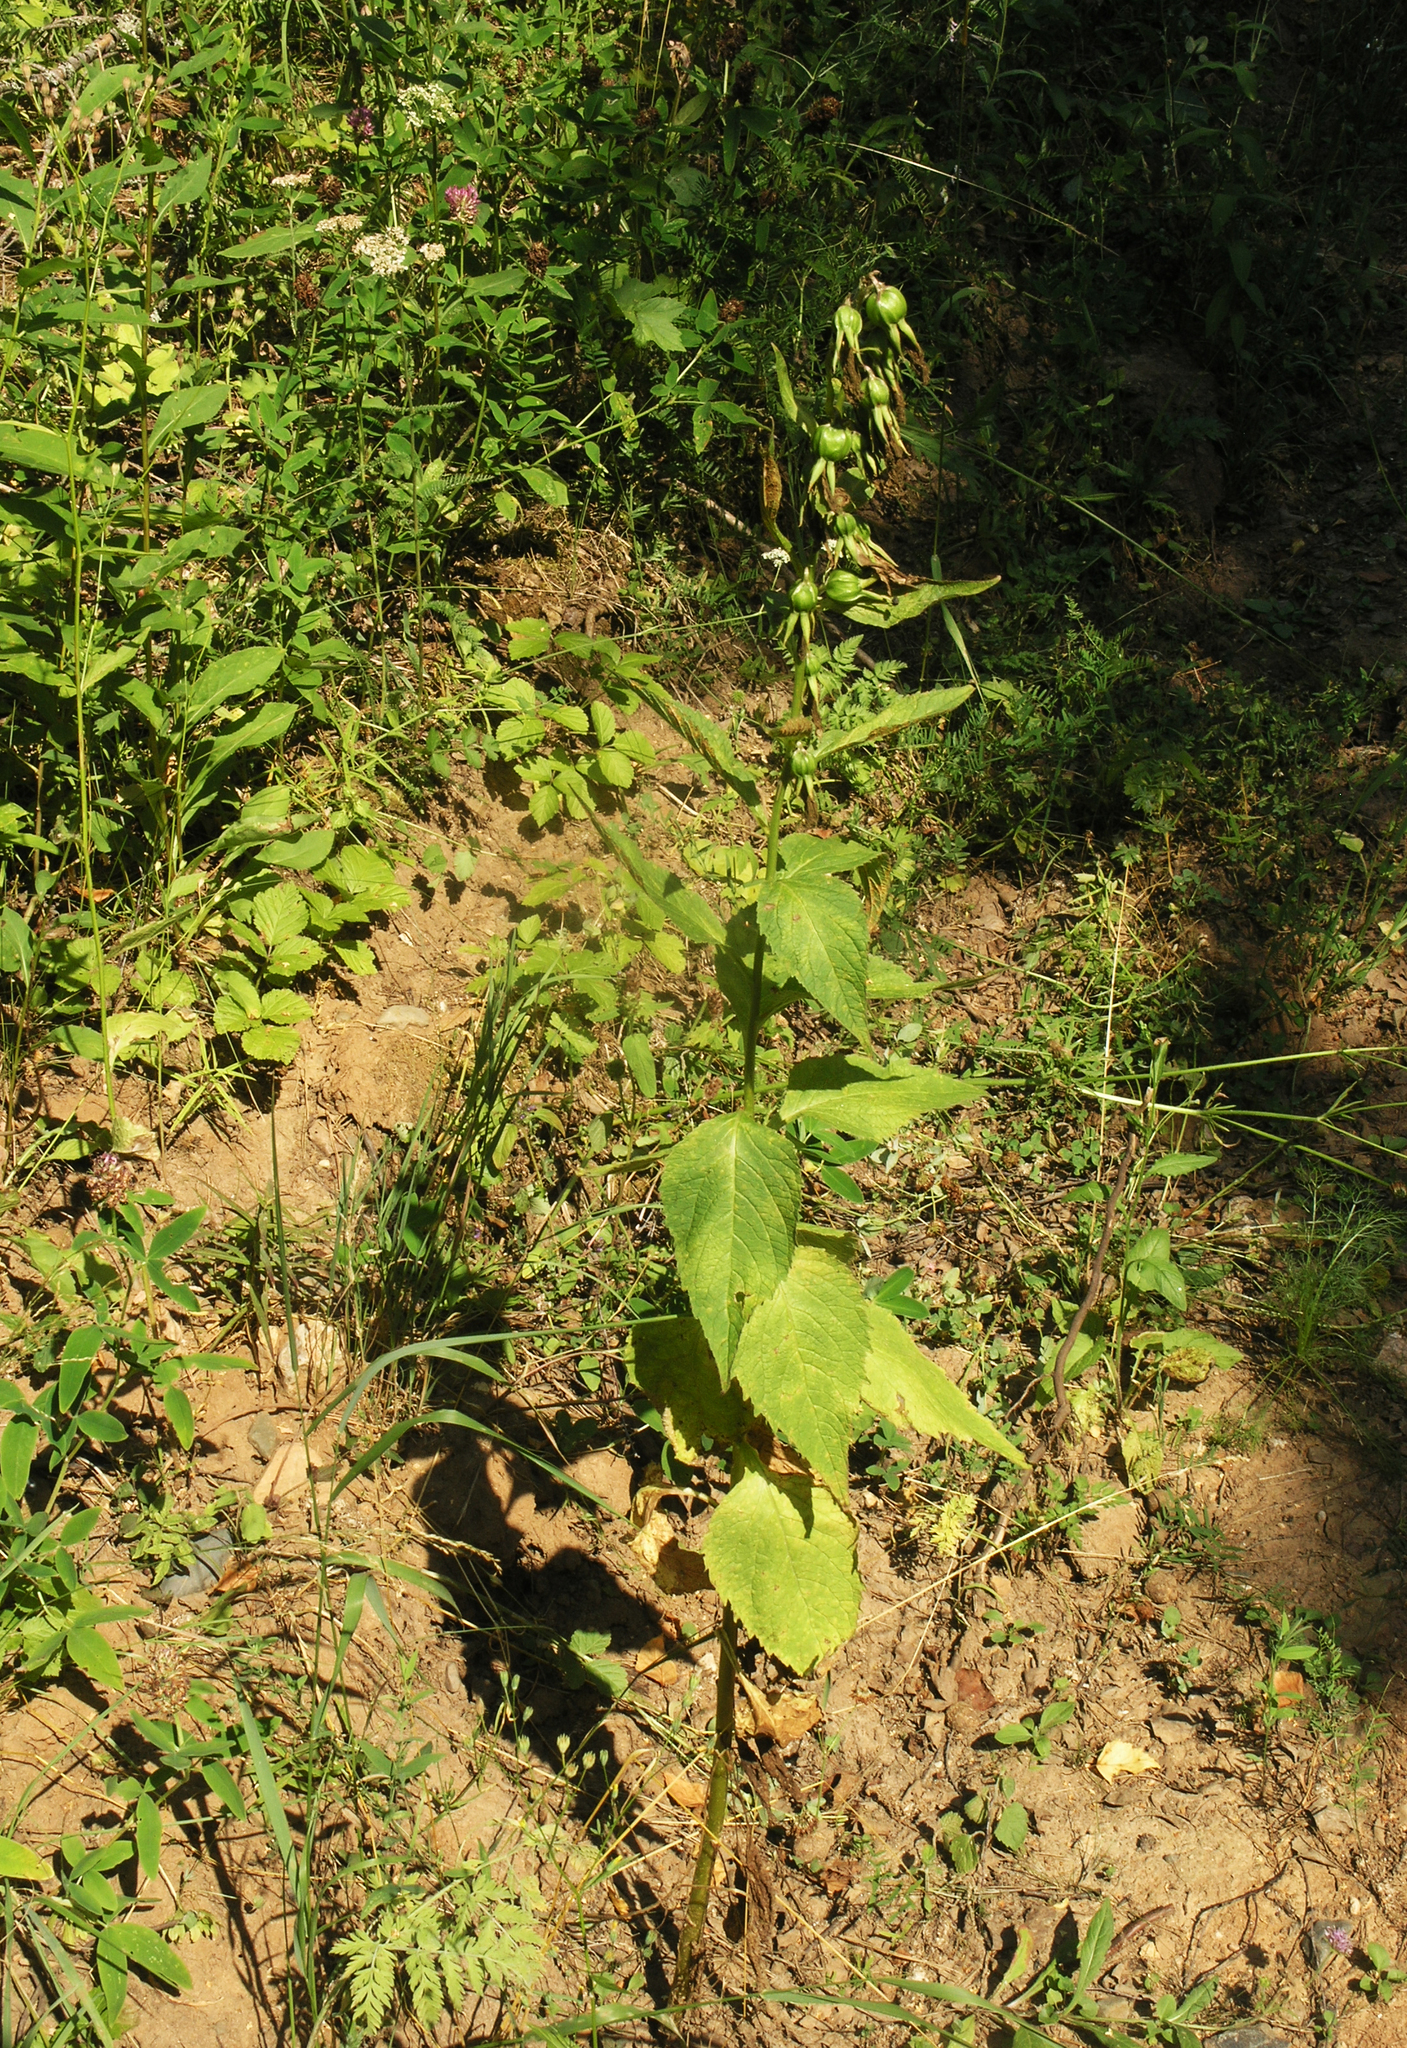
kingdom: Plantae
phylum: Tracheophyta
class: Magnoliopsida
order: Asterales
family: Campanulaceae
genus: Campanula
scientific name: Campanula latifolia
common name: Giant bellflower
